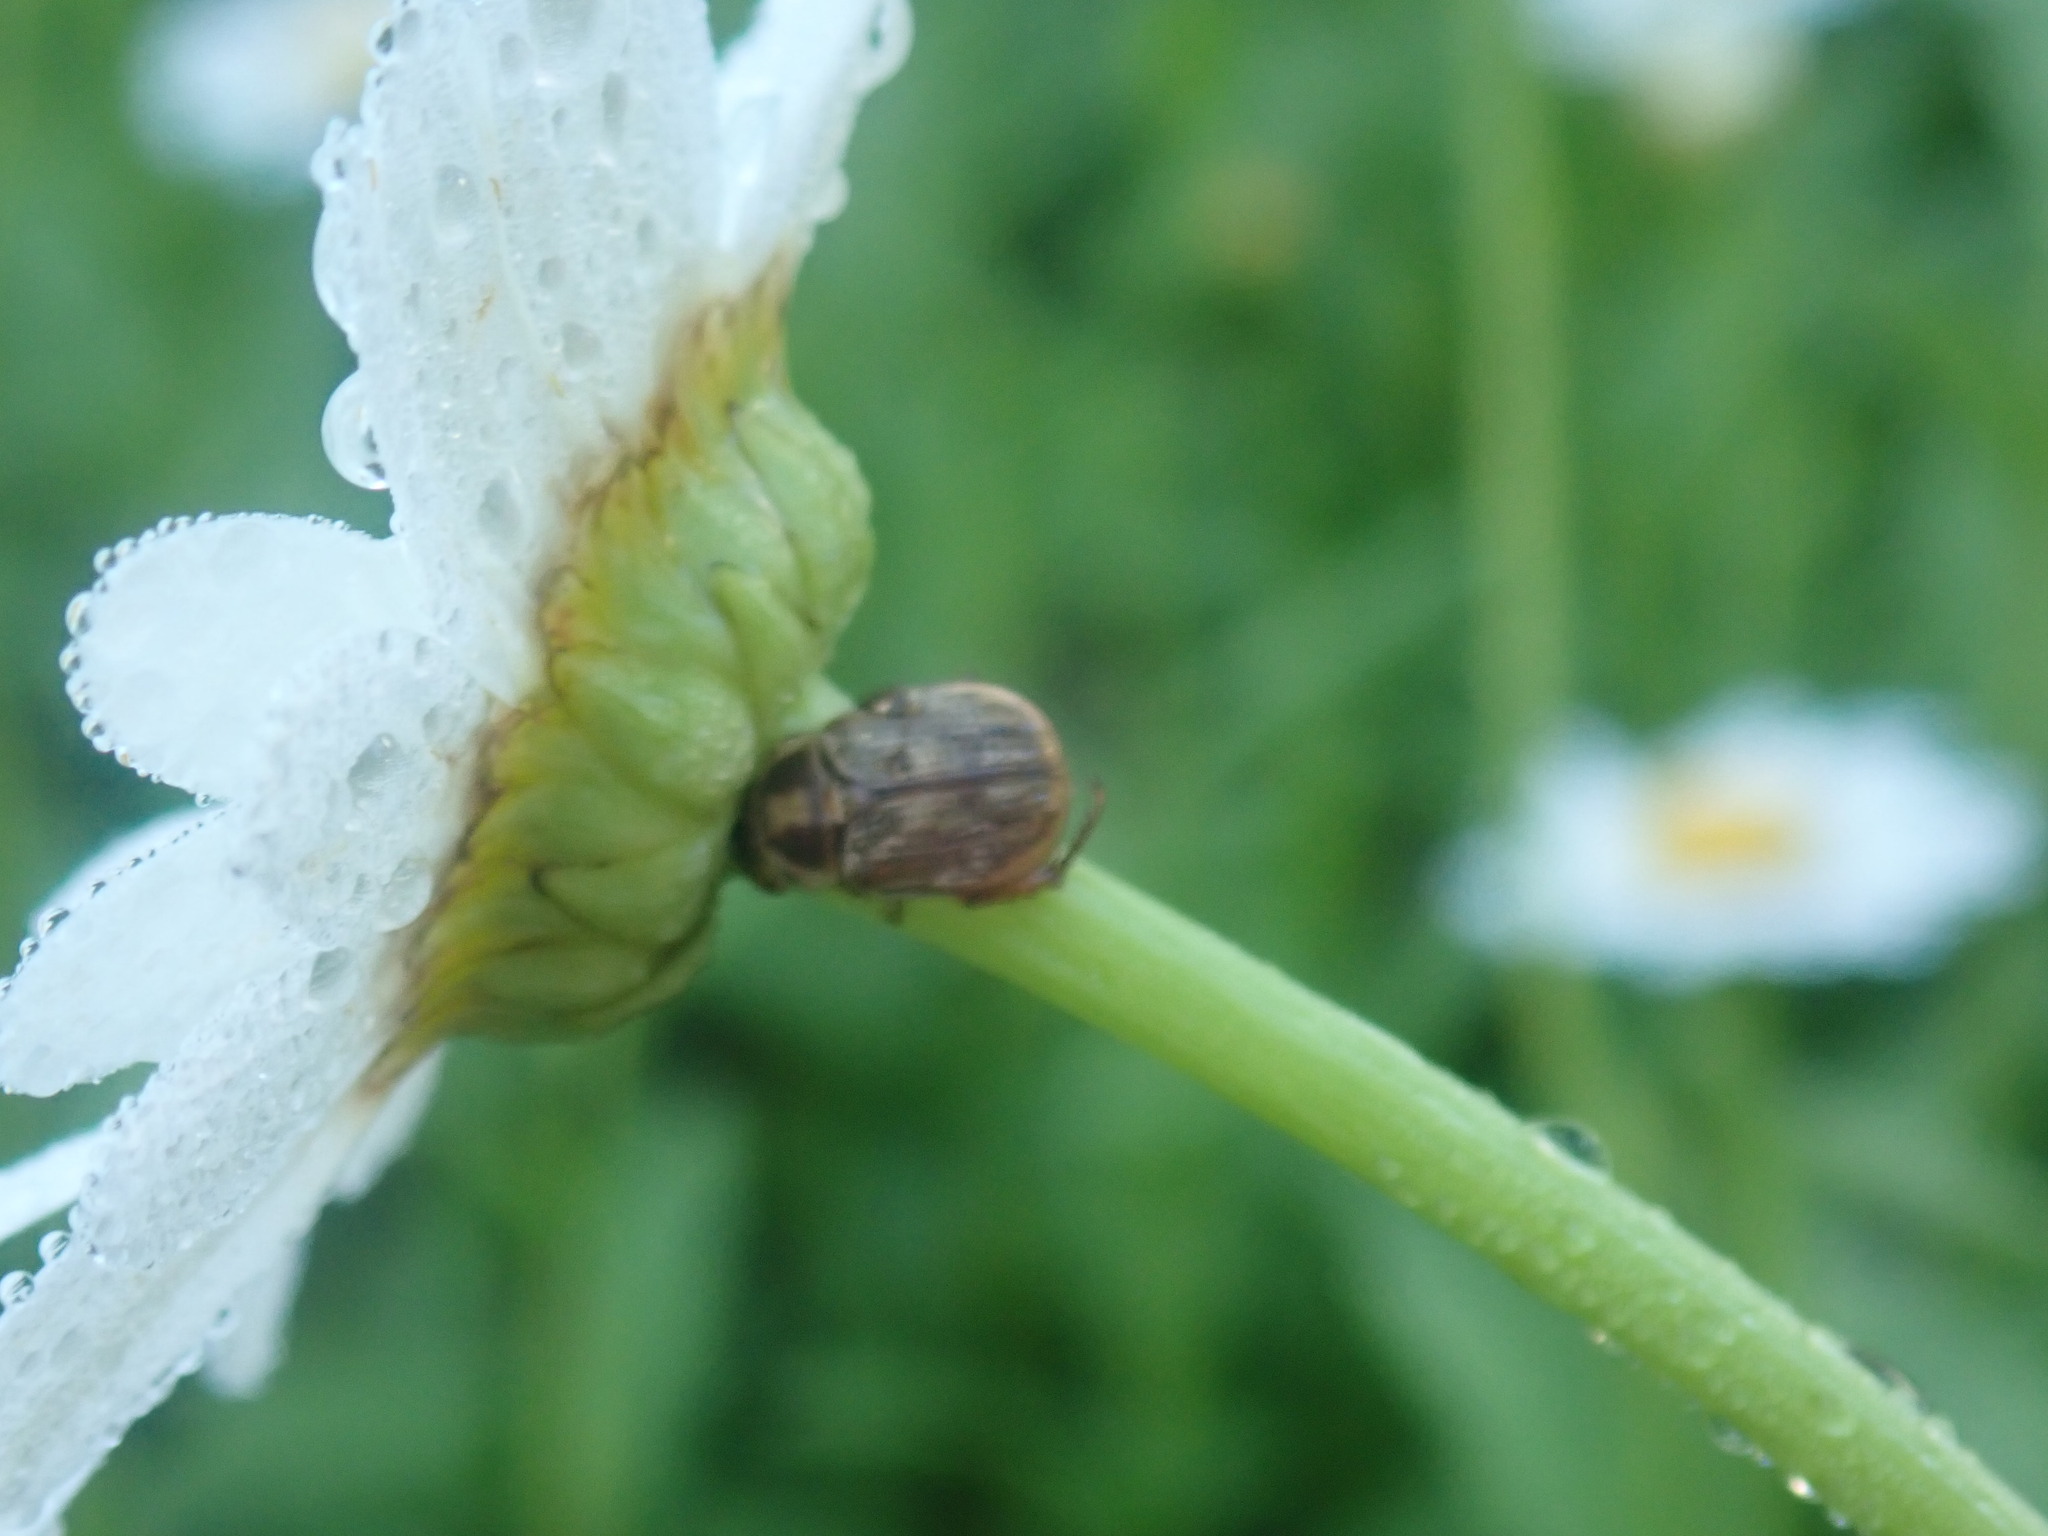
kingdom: Animalia
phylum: Arthropoda
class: Insecta
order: Coleoptera
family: Scarabaeidae
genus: Exomala
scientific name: Exomala orientalis
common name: Oriental beetle
